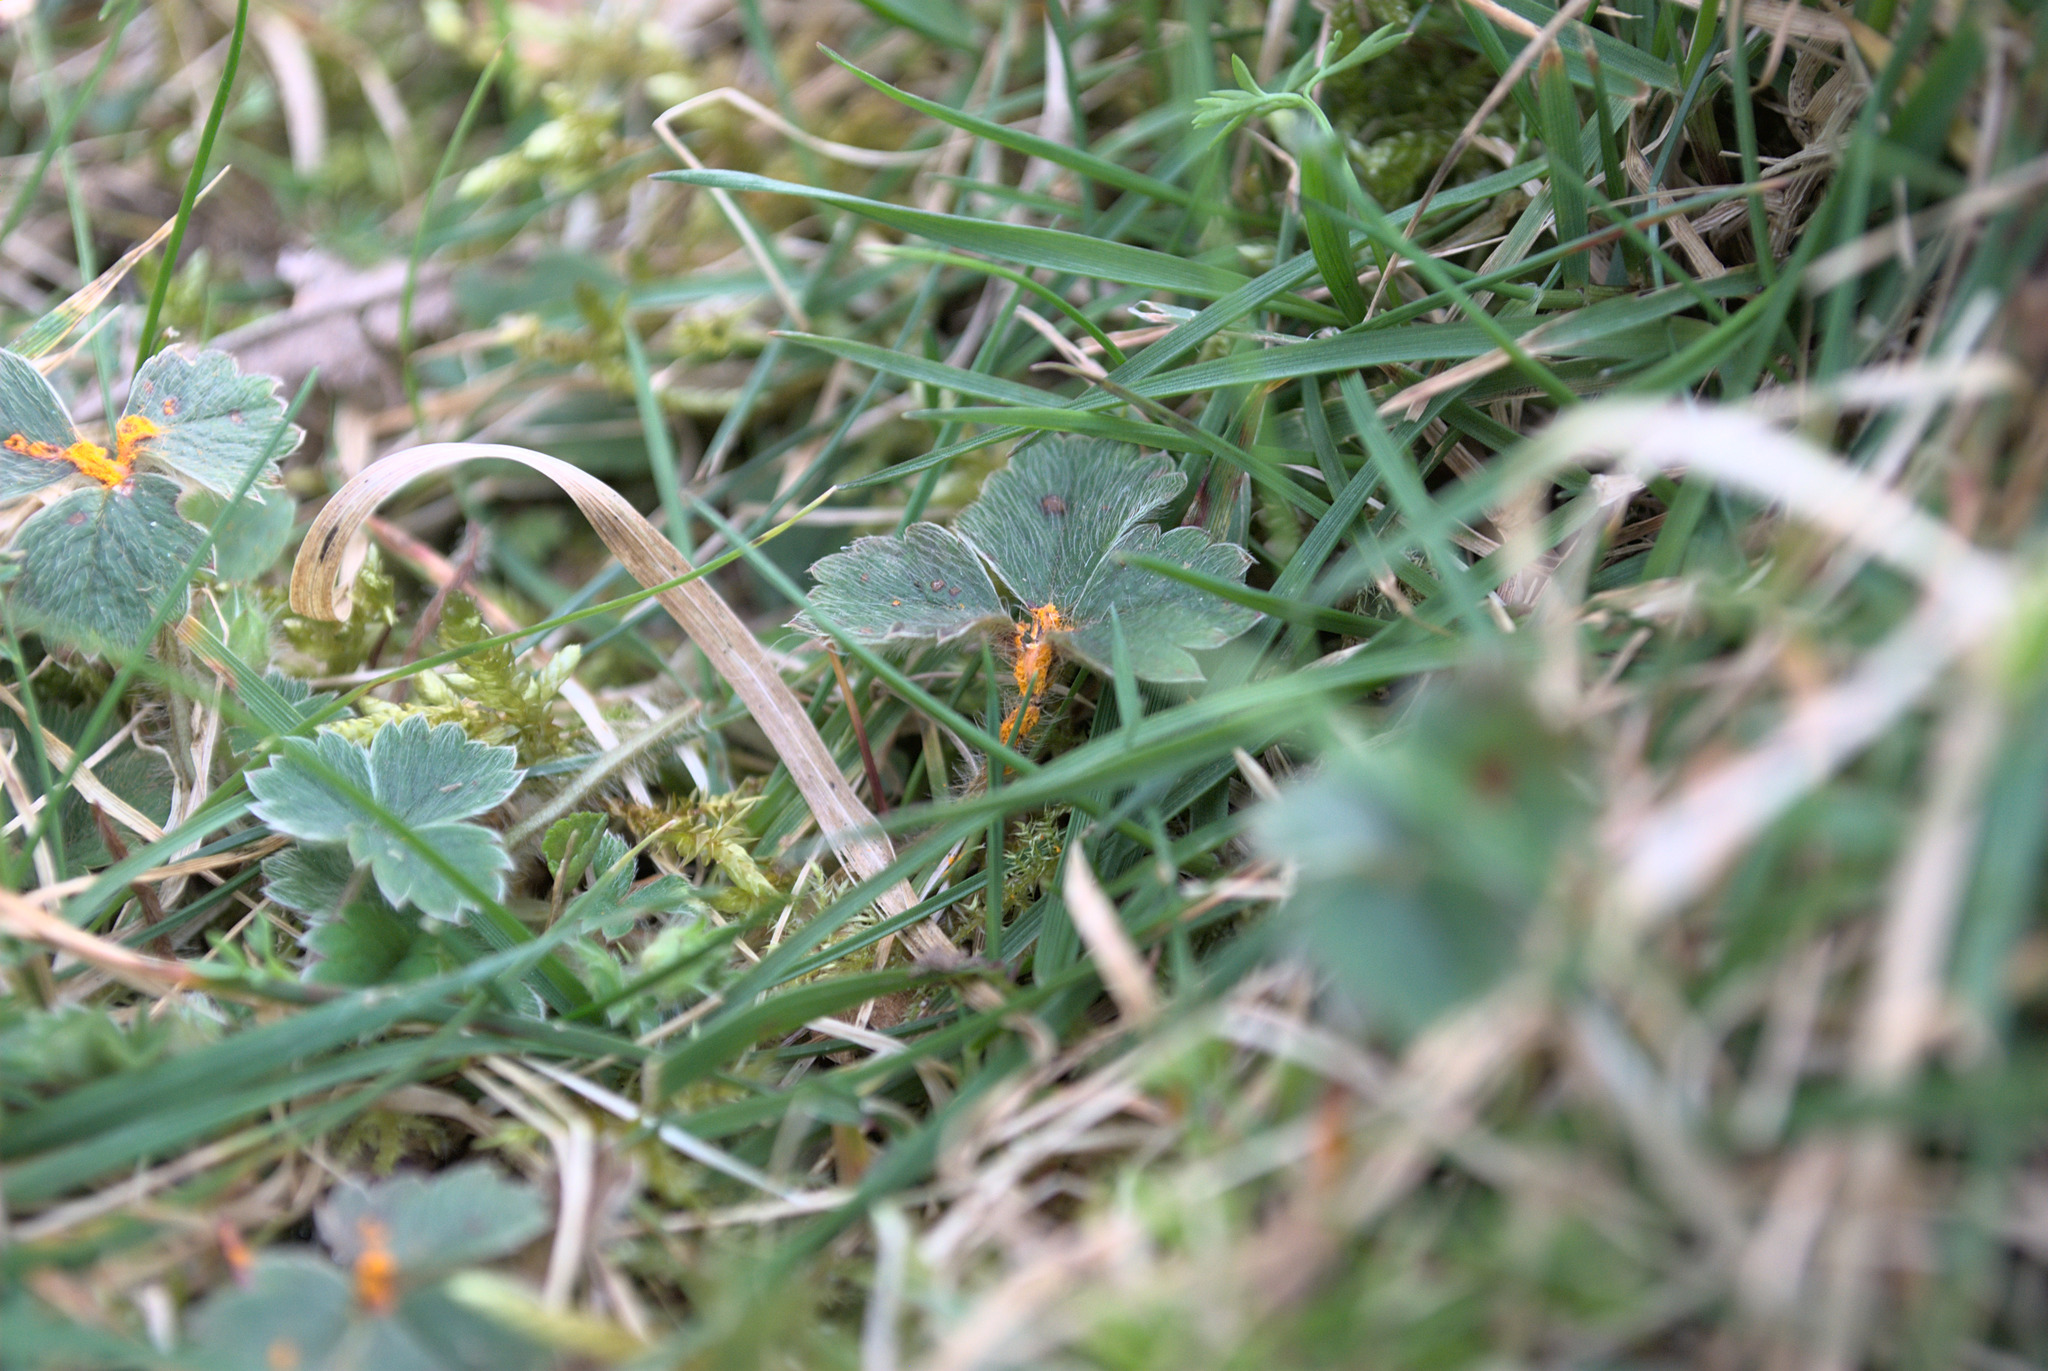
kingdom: Fungi
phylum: Basidiomycota
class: Pucciniomycetes
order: Pucciniales
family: Phragmidiaceae
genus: Phragmidium
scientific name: Phragmidium fragariae
